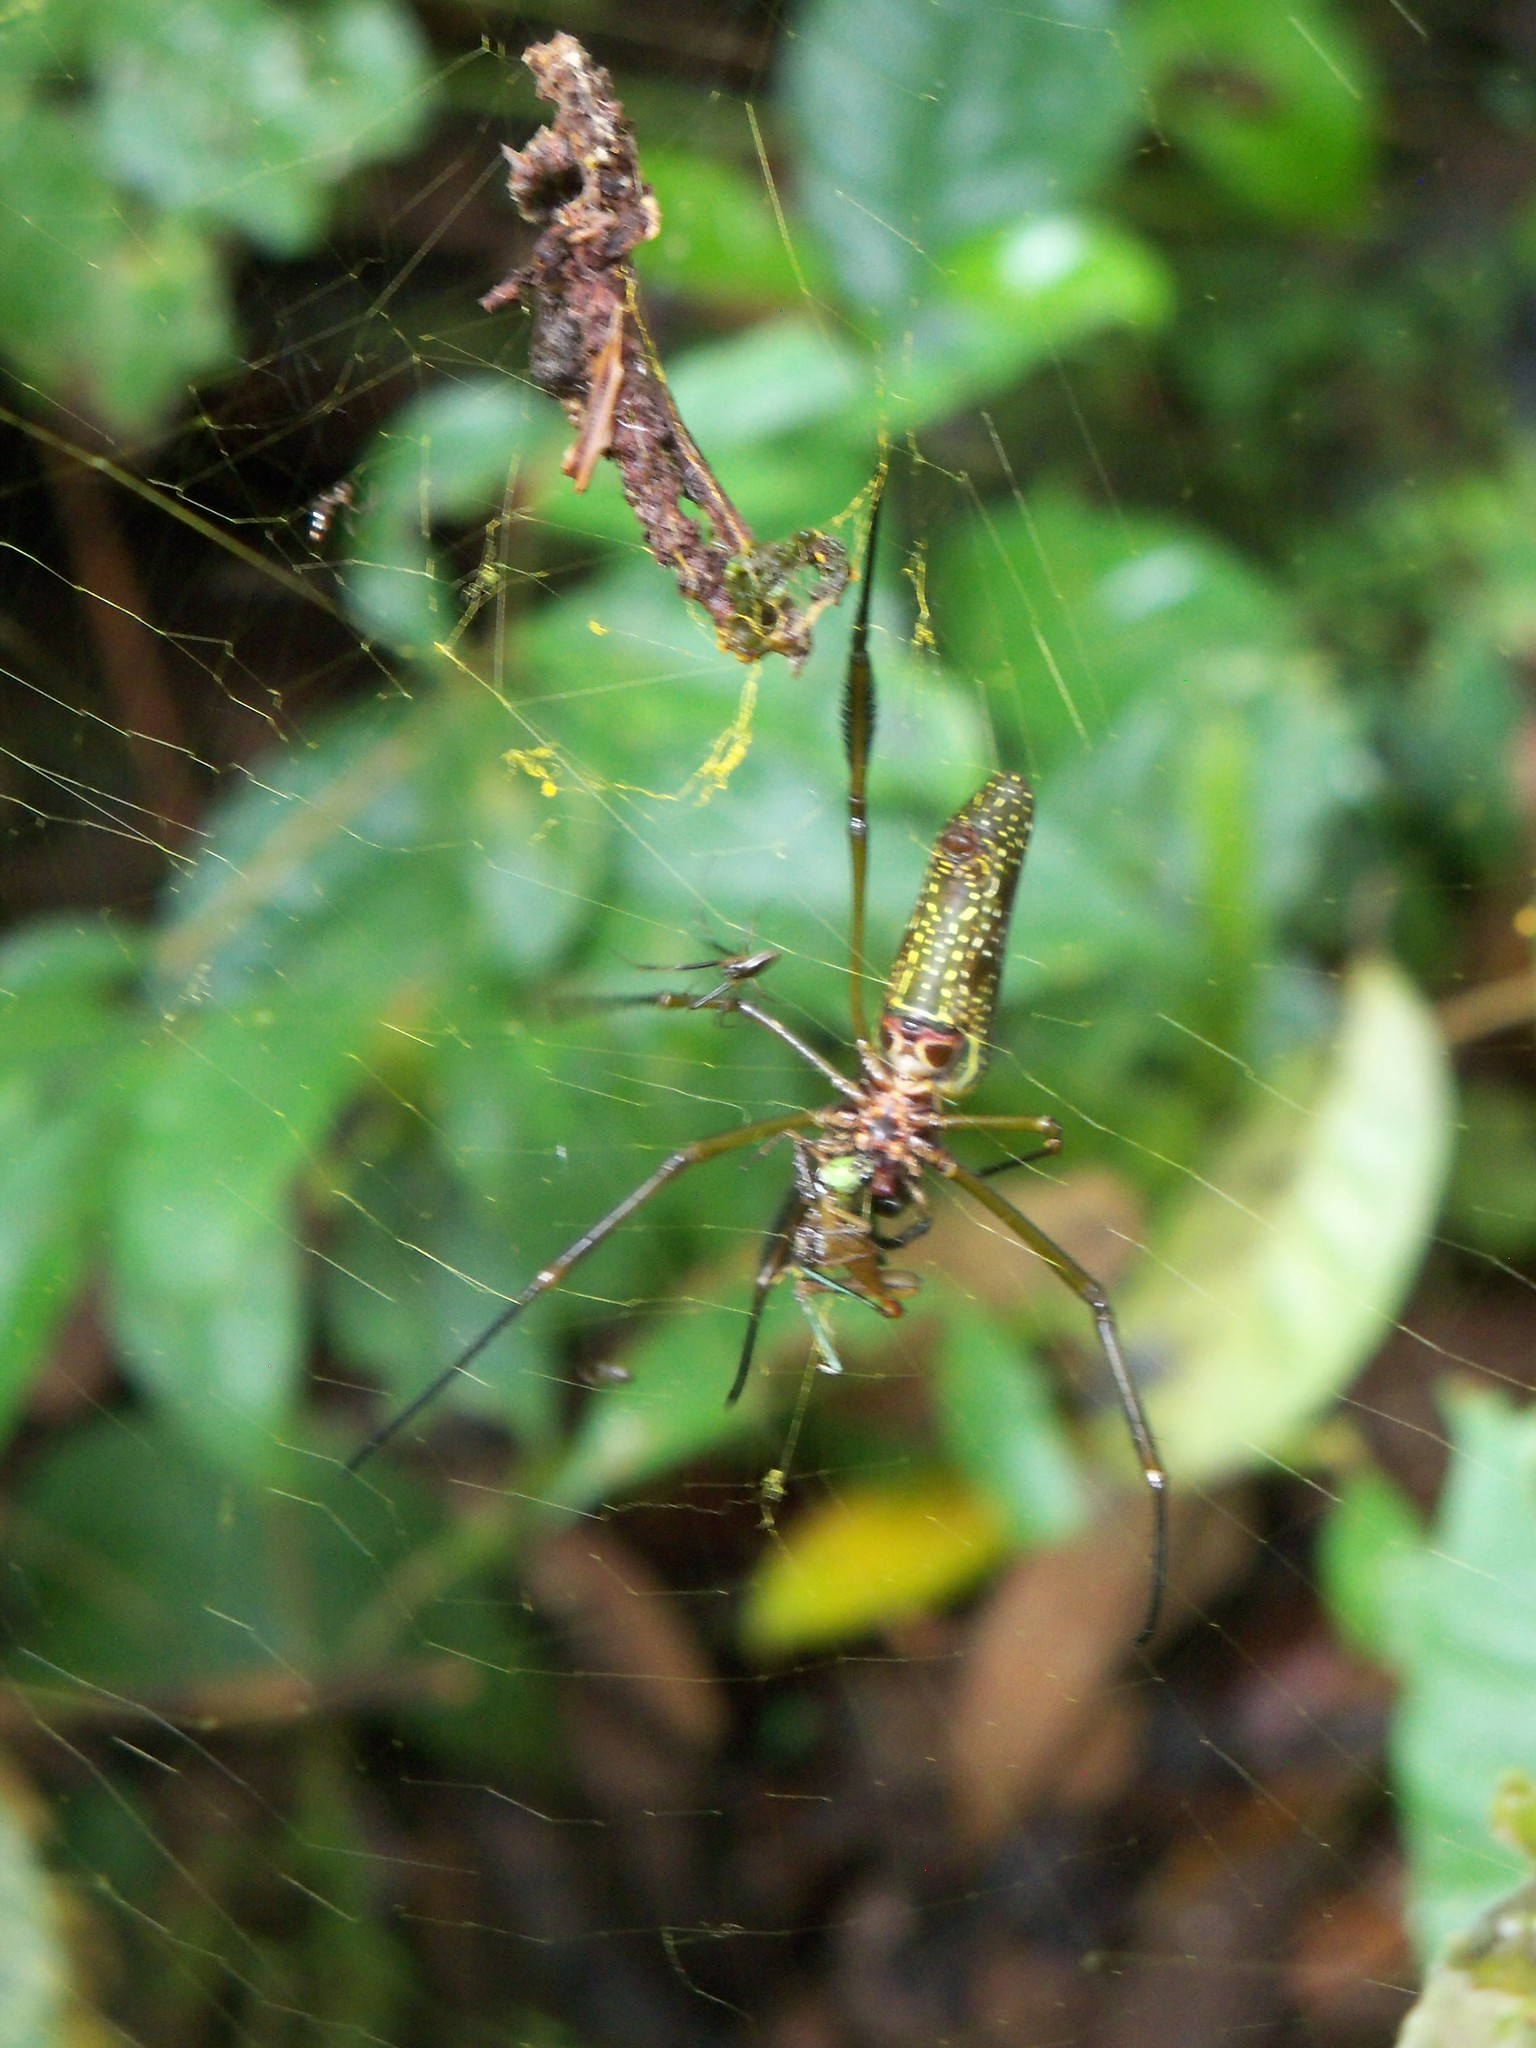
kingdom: Animalia
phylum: Arthropoda
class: Arachnida
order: Araneae
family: Araneidae
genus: Trichonephila
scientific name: Trichonephila clavipes
